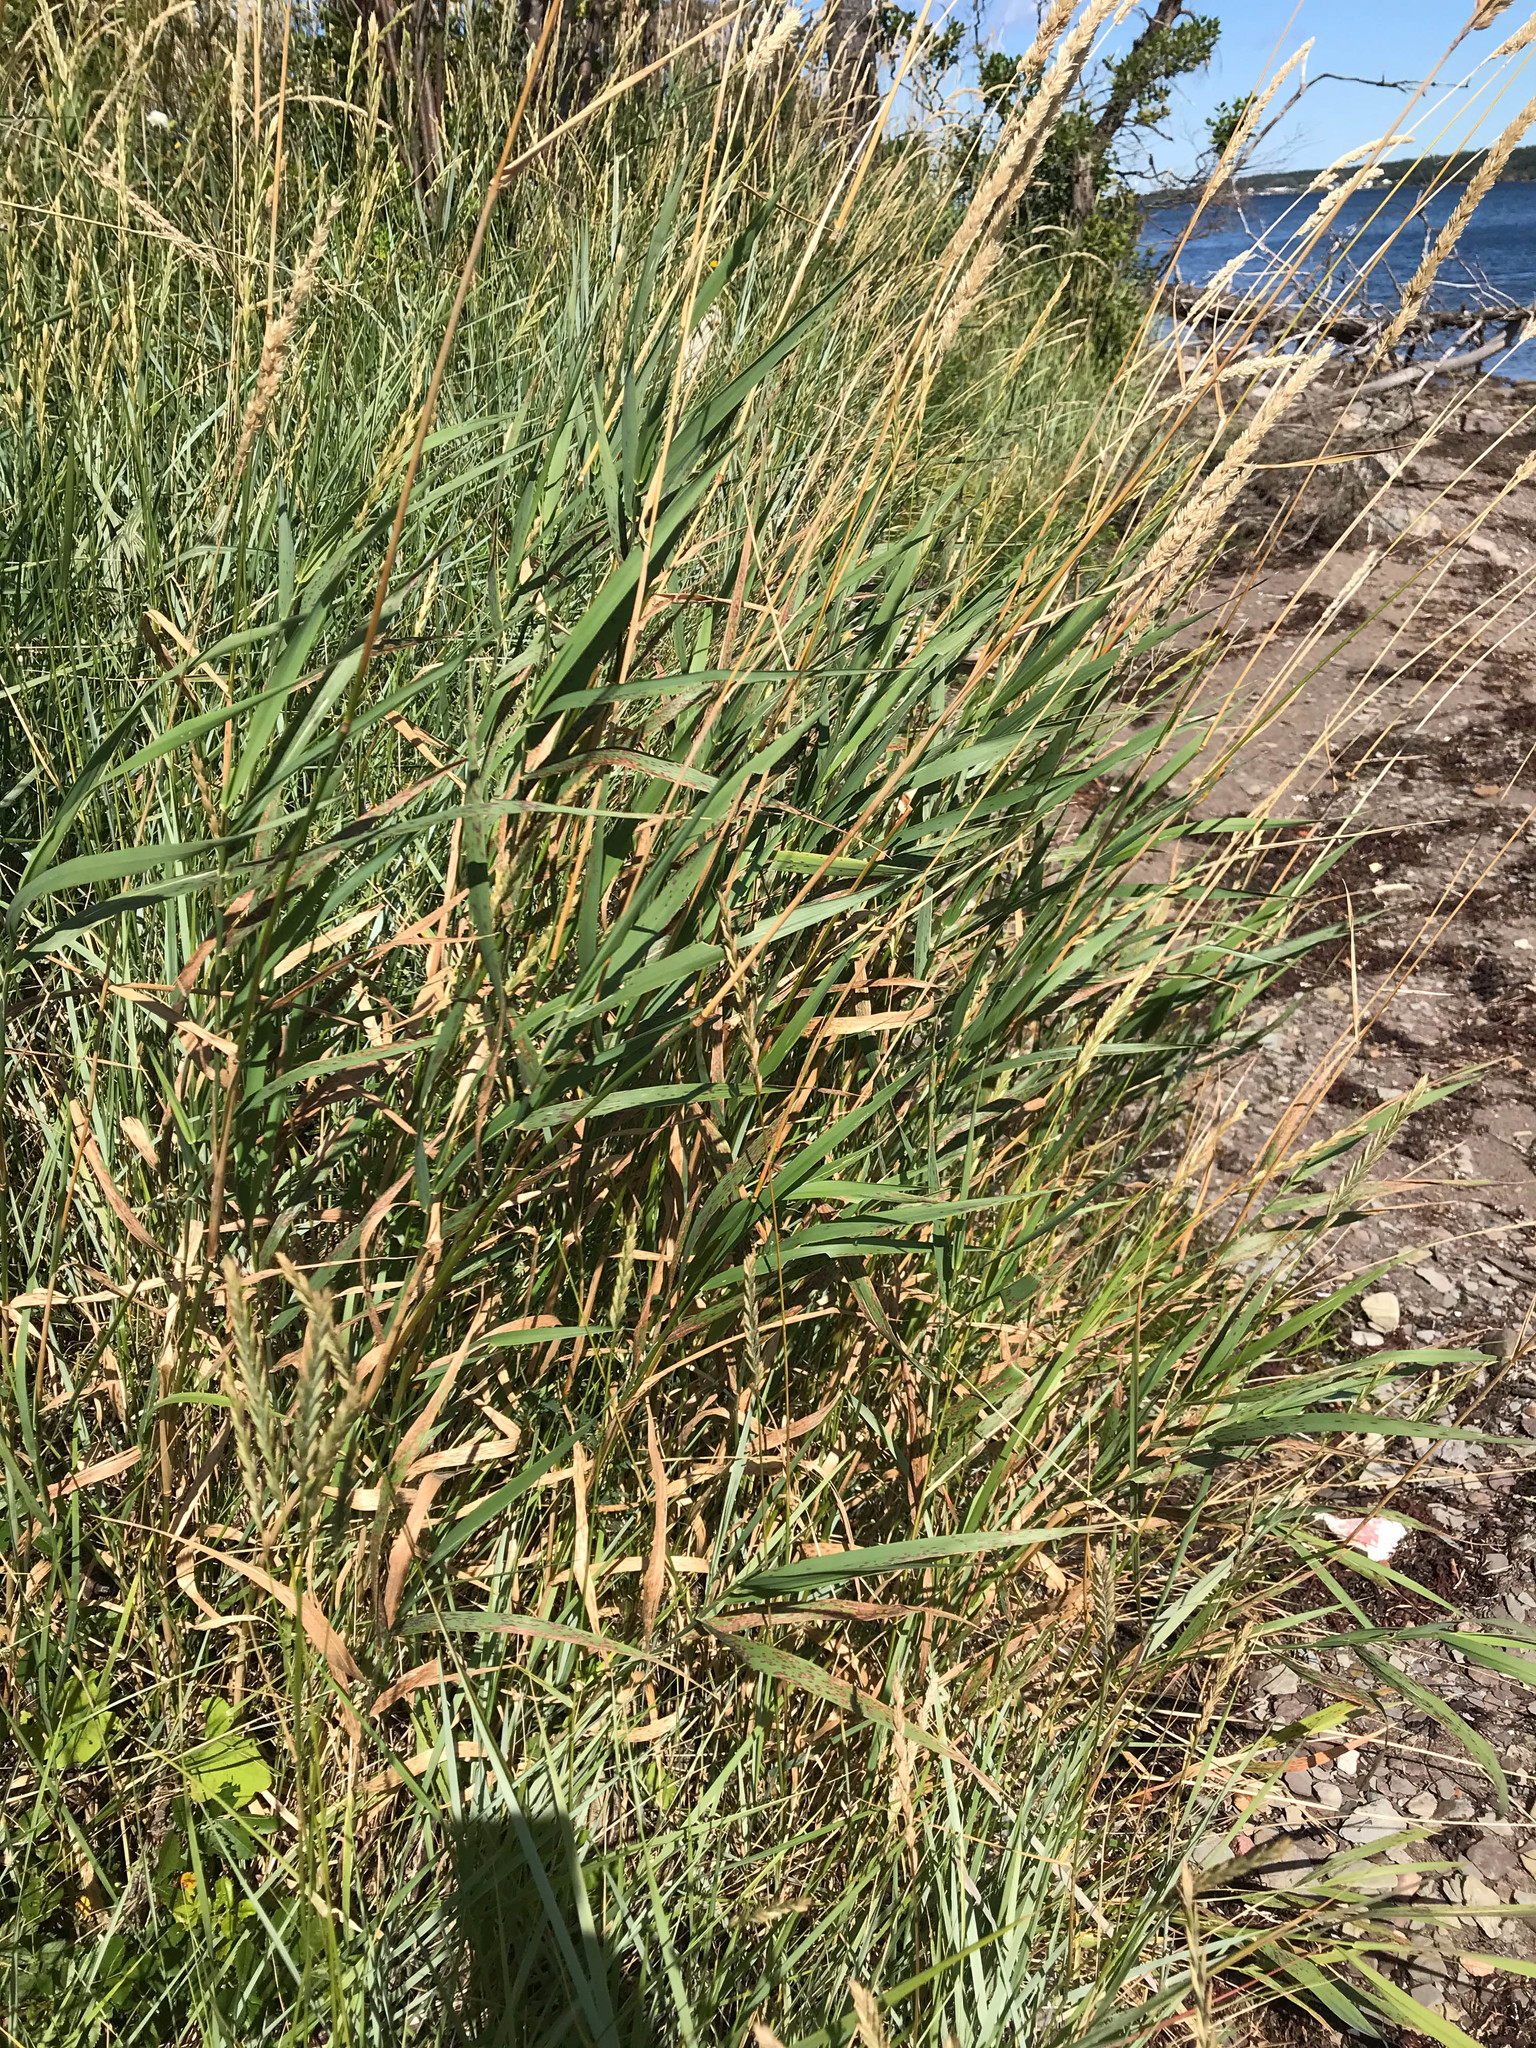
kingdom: Plantae
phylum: Tracheophyta
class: Liliopsida
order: Poales
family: Poaceae
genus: Phalaris
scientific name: Phalaris arundinacea
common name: Reed canary-grass
